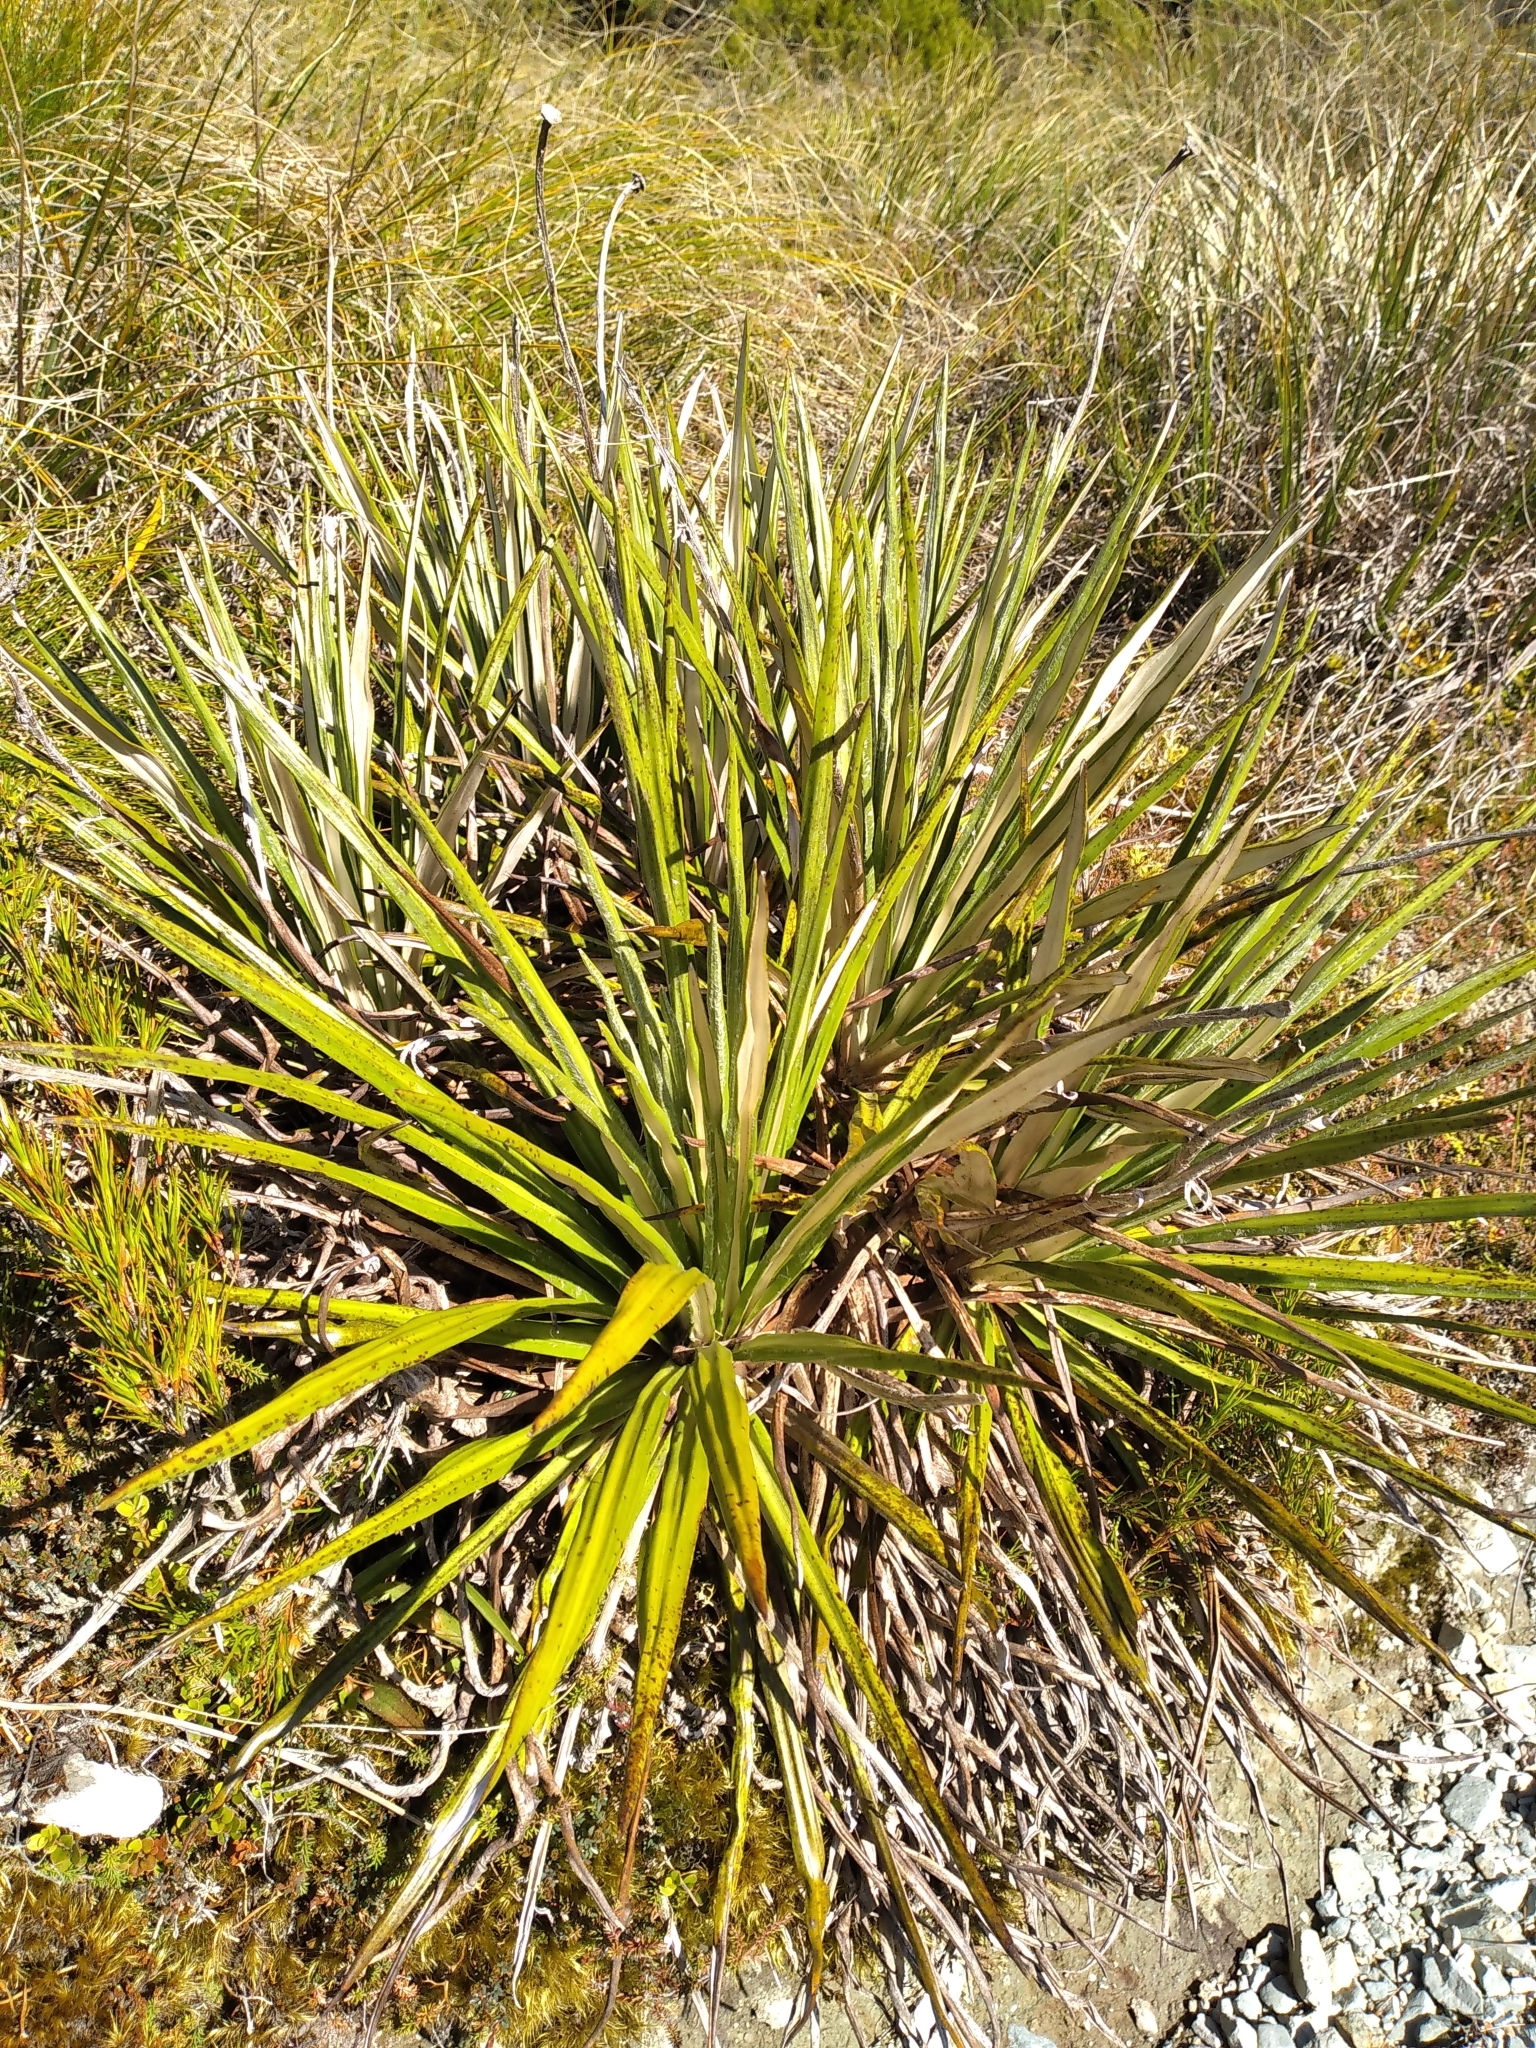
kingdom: Plantae
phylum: Tracheophyta
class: Magnoliopsida
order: Asterales
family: Asteraceae
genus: Celmisia
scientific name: Celmisia petriei
